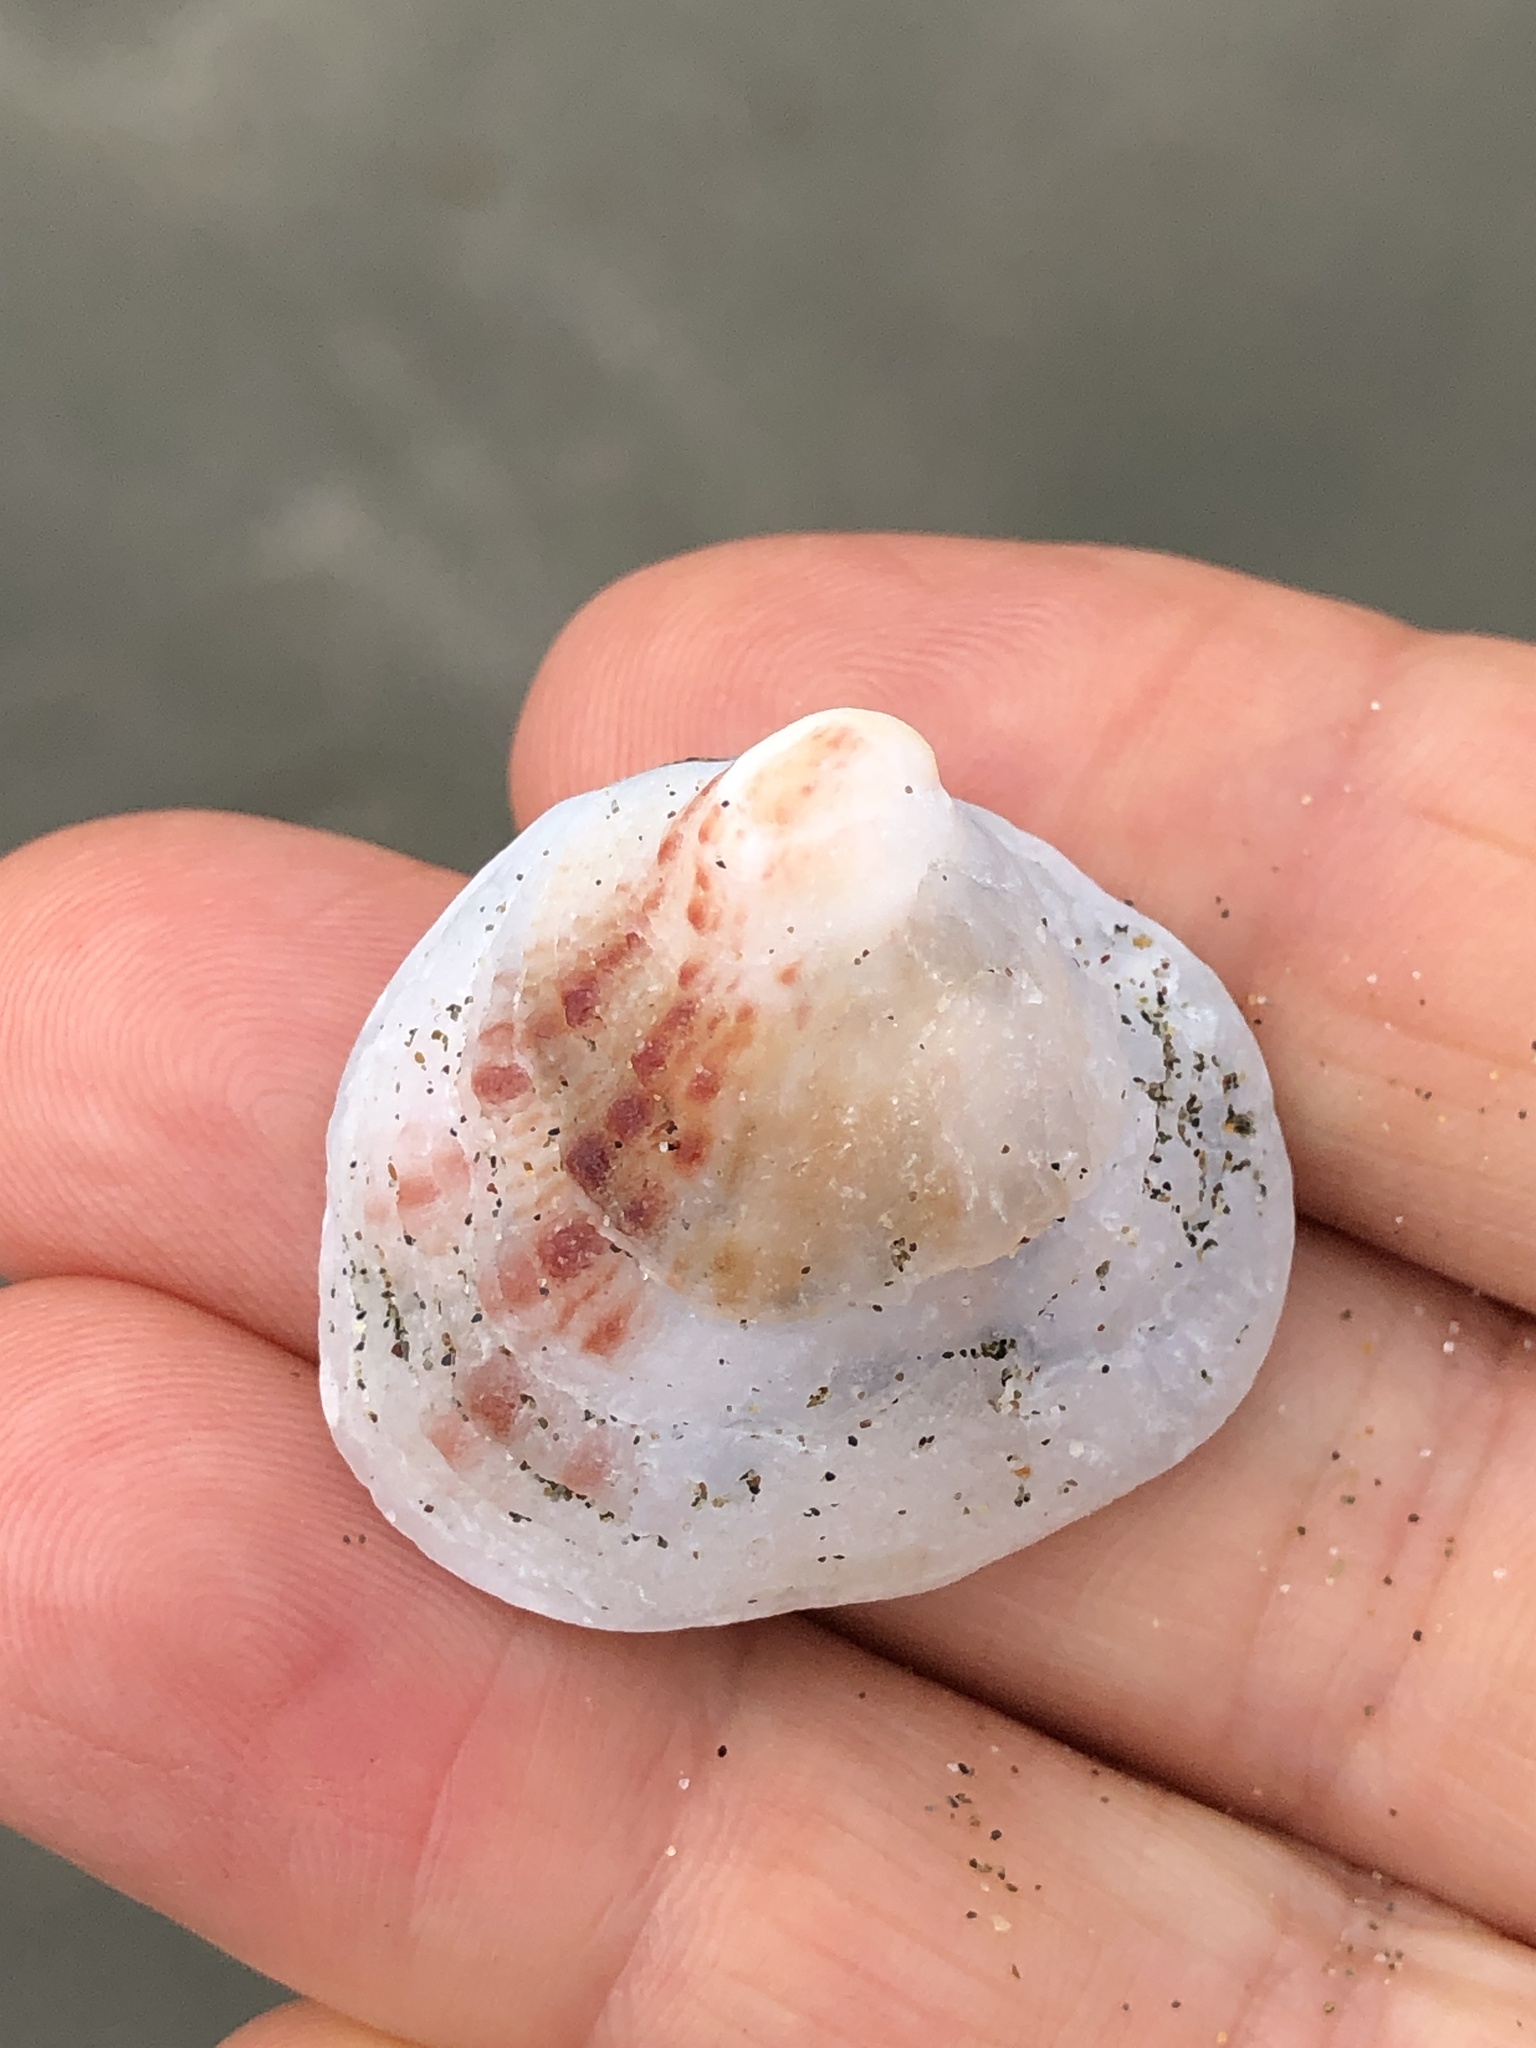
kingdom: Animalia
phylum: Mollusca
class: Bivalvia
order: Venerida
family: Chamidae
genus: Chama
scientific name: Chama arcana
